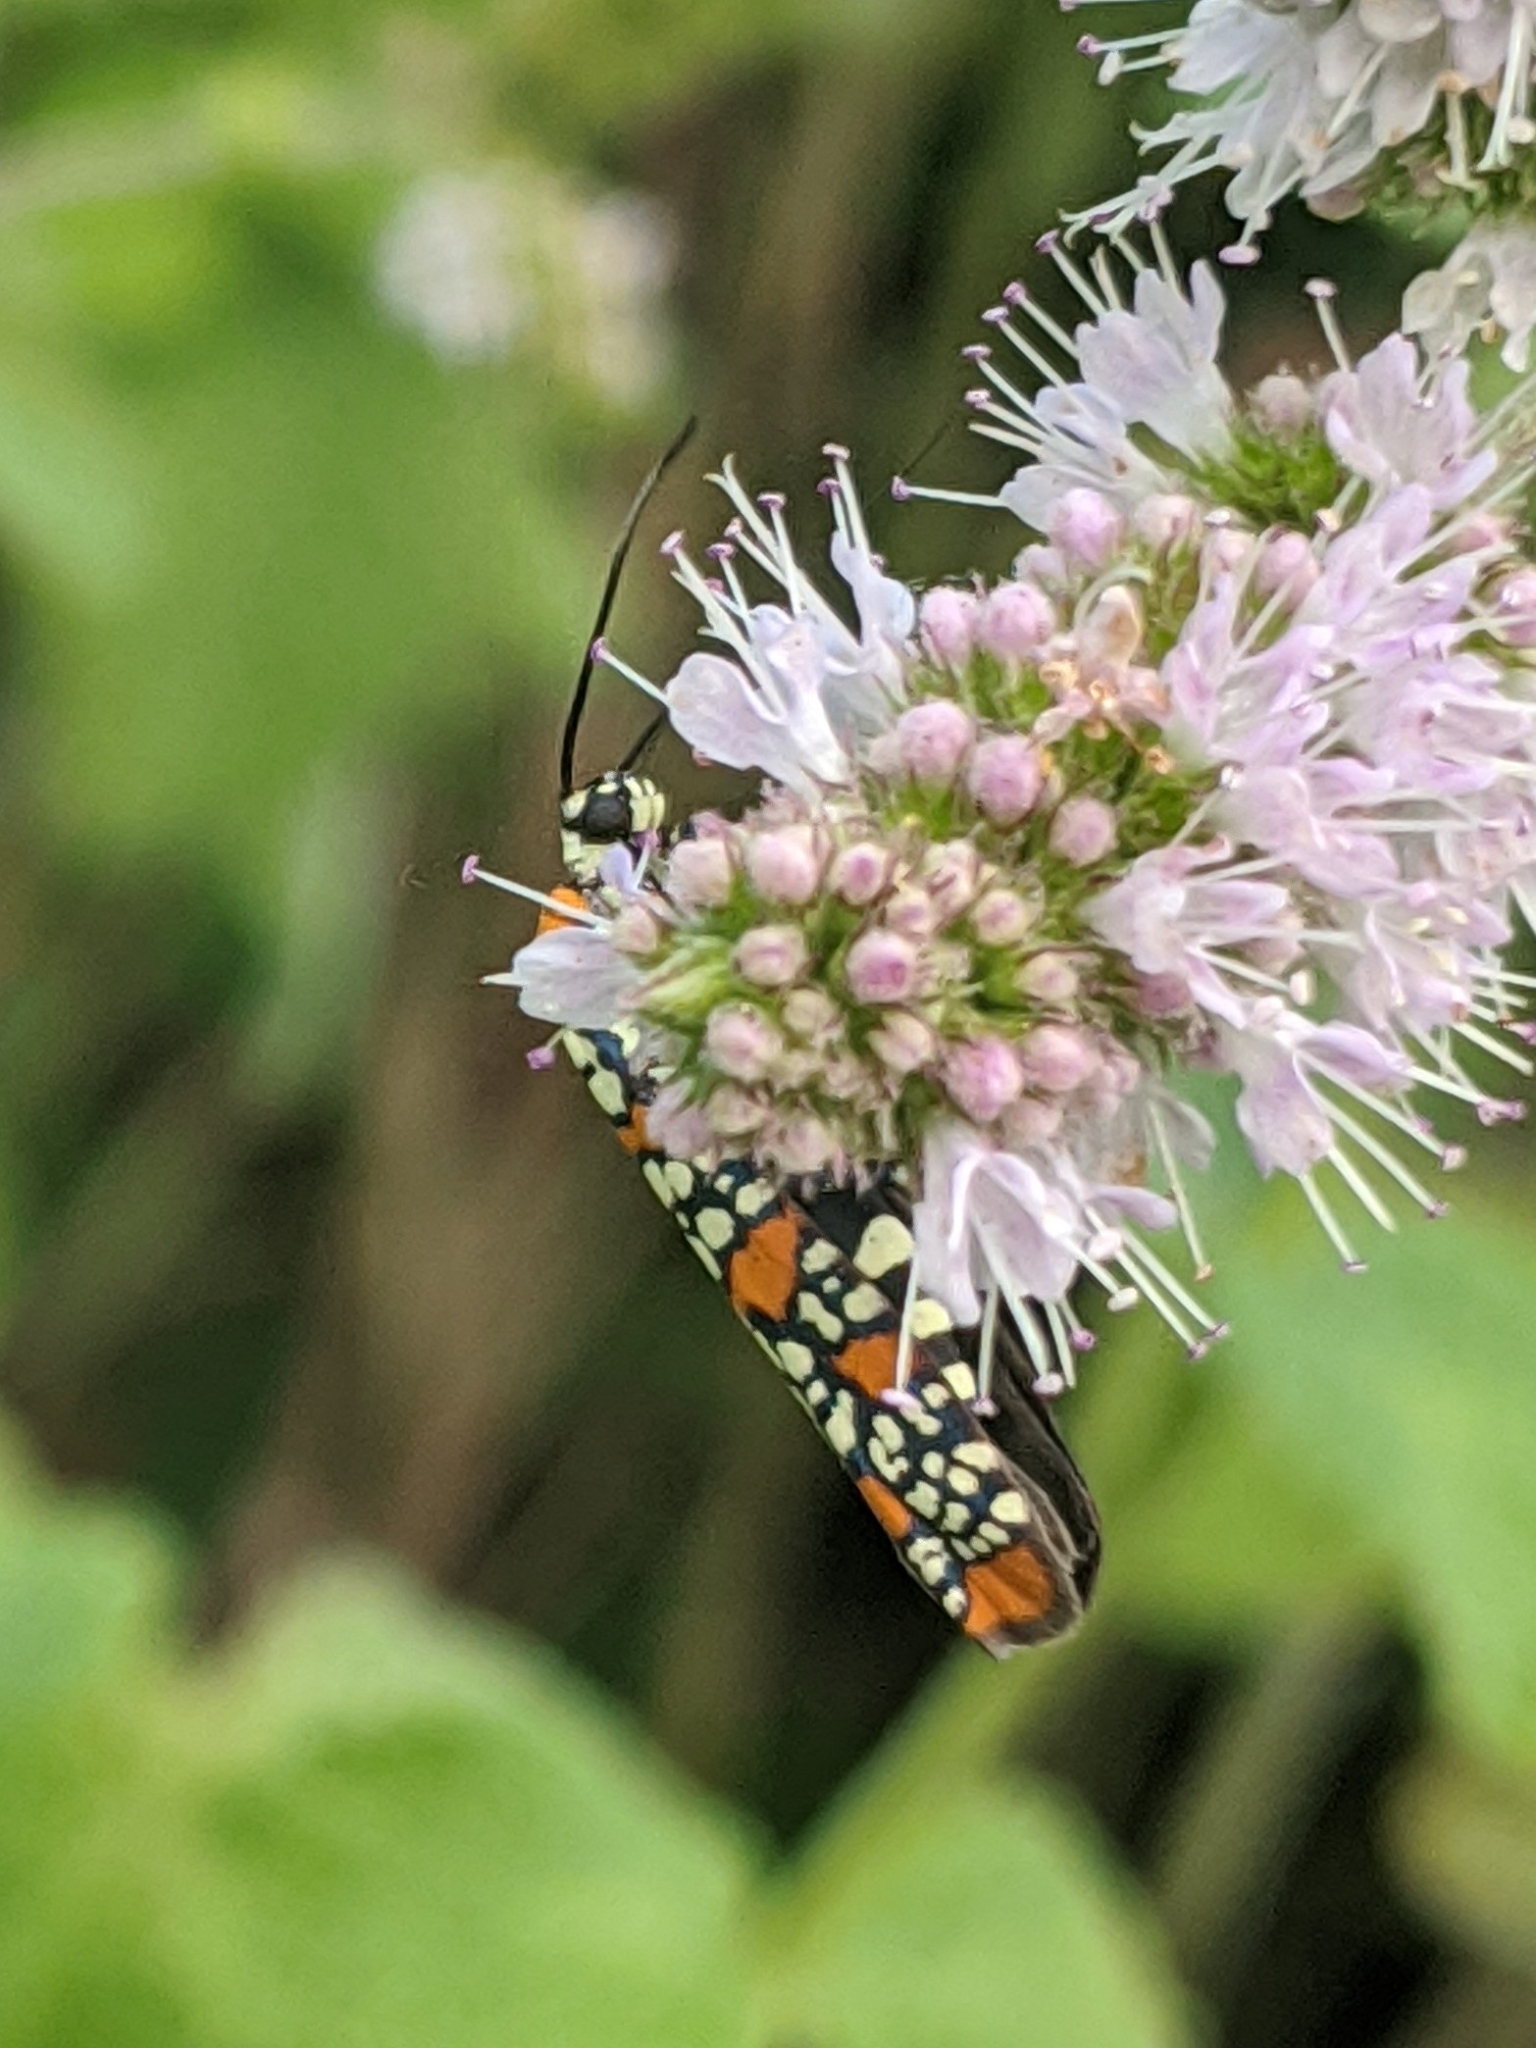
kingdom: Animalia
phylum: Arthropoda
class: Insecta
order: Lepidoptera
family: Attevidae
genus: Atteva
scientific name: Atteva punctella
